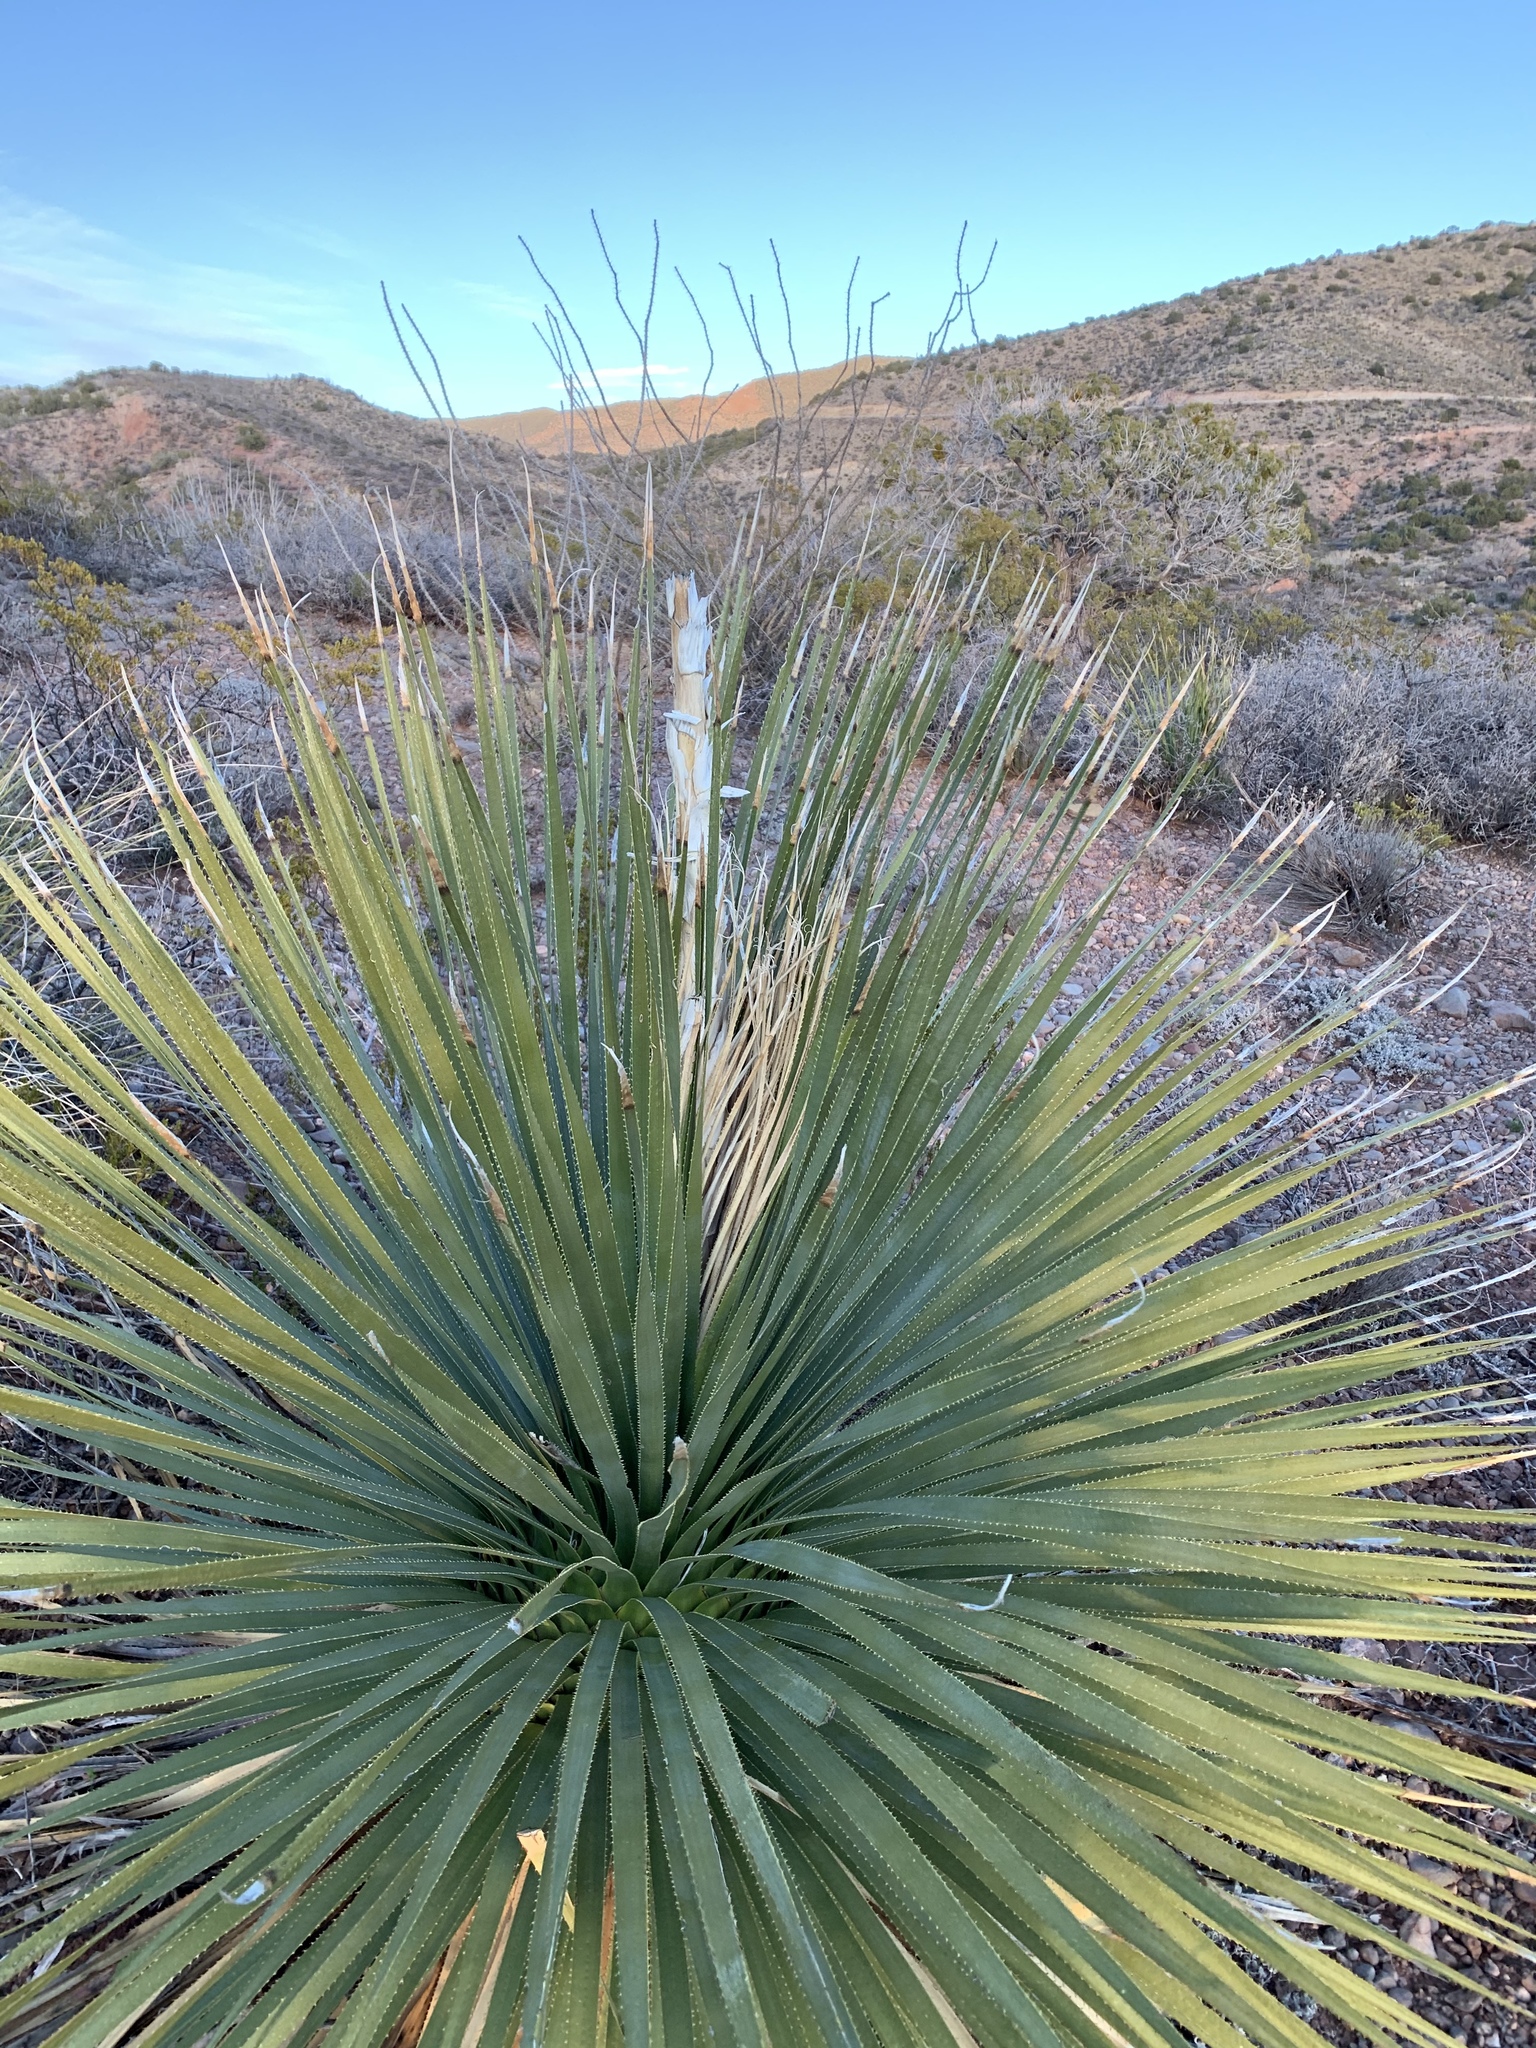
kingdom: Plantae
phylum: Tracheophyta
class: Liliopsida
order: Asparagales
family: Asparagaceae
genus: Dasylirion
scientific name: Dasylirion wheeleri
